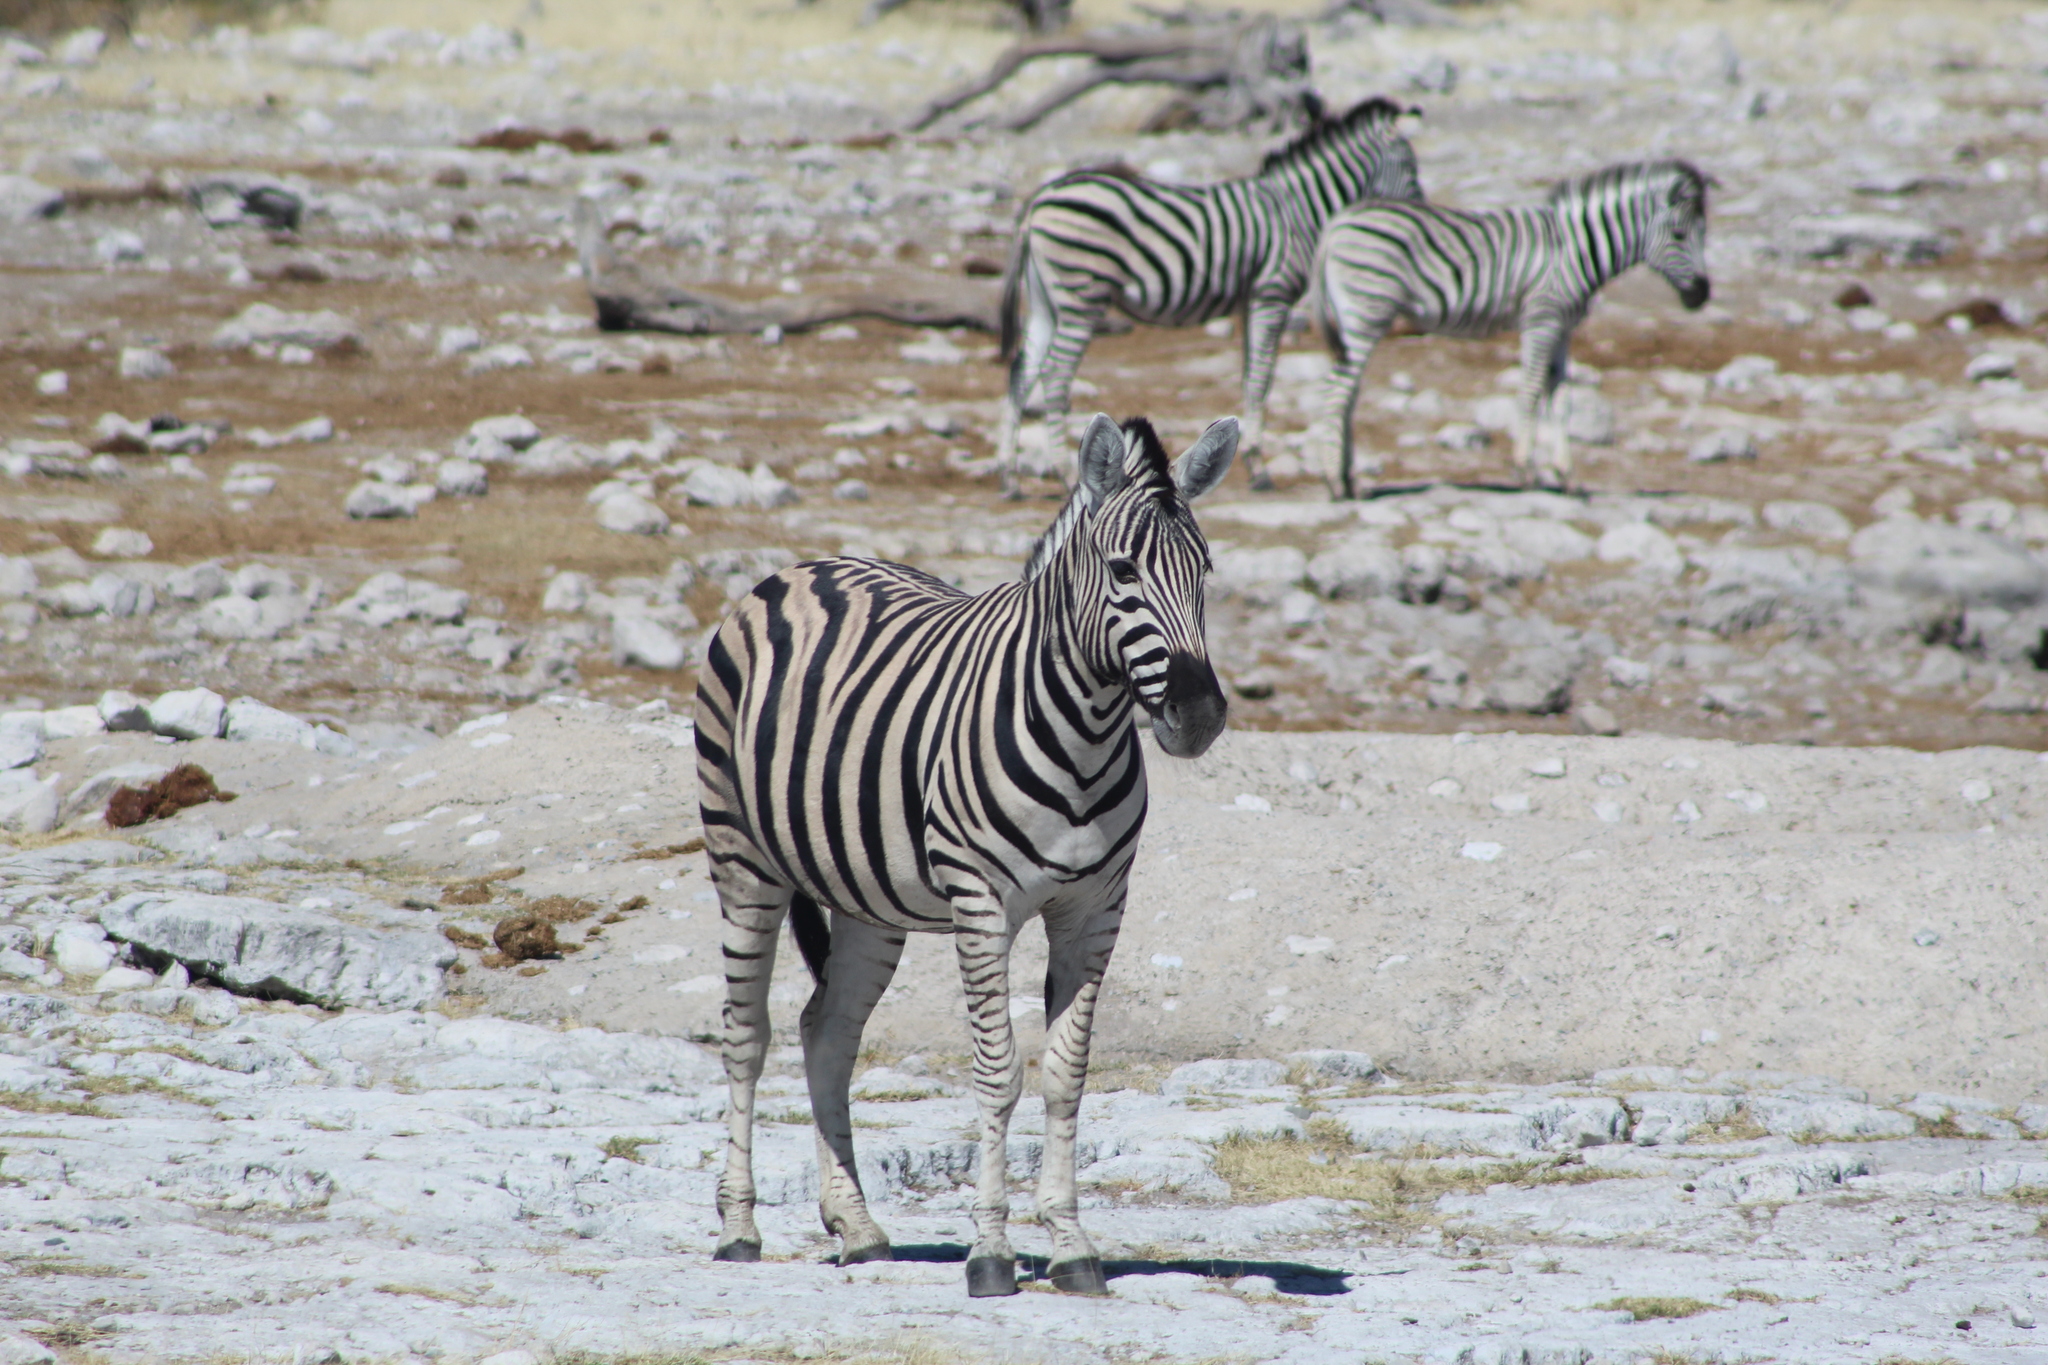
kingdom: Animalia
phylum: Chordata
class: Mammalia
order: Perissodactyla
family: Equidae
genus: Equus
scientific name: Equus quagga
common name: Plains zebra
